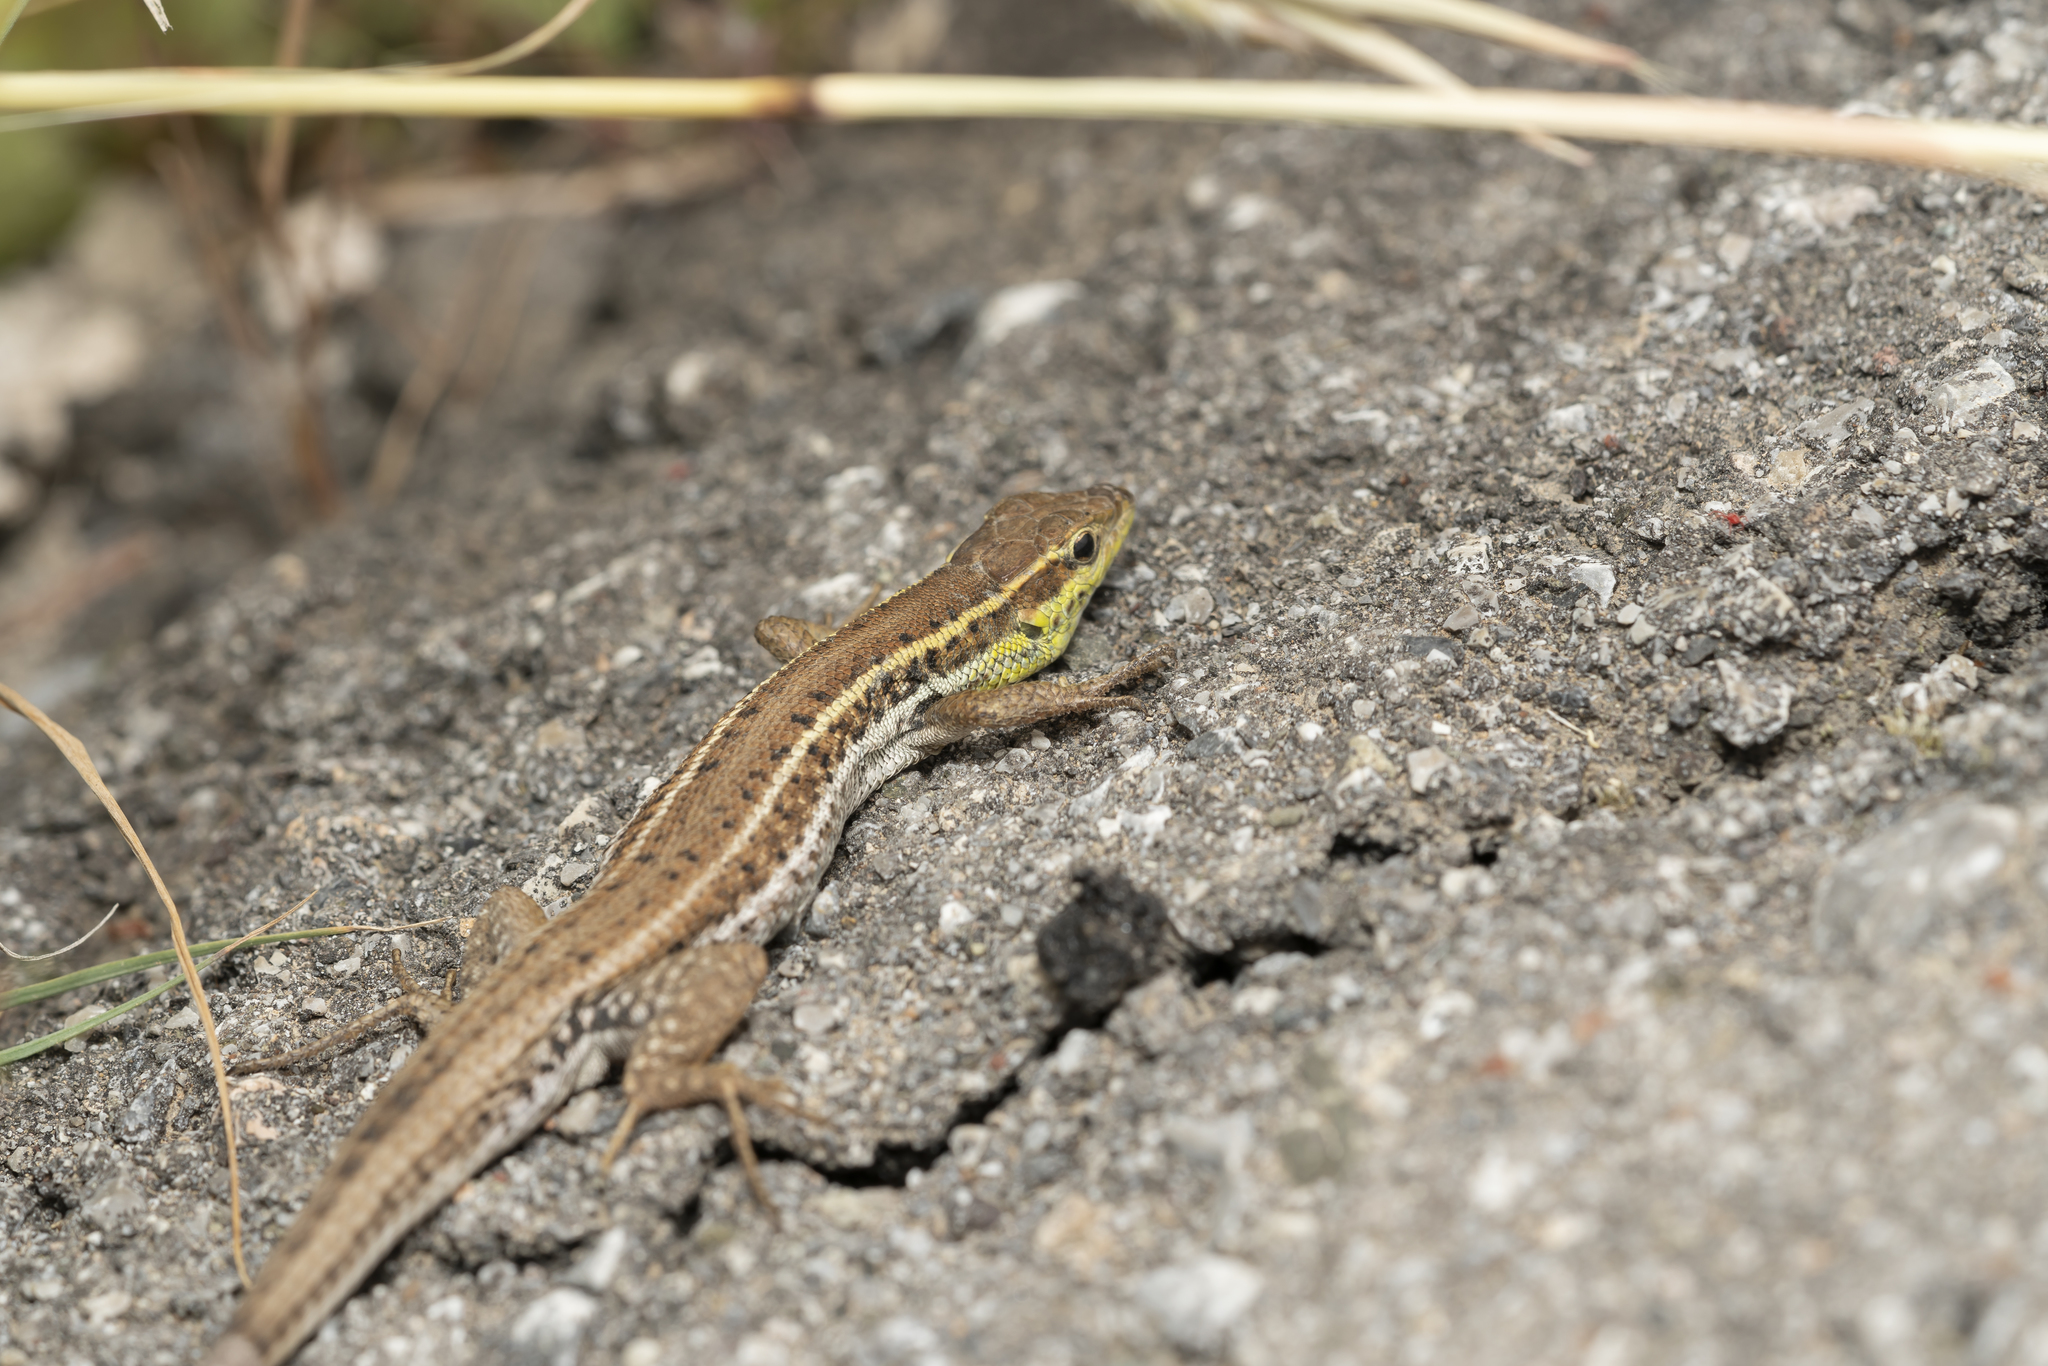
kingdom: Animalia
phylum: Chordata
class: Squamata
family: Lacertidae
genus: Ophisops
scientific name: Ophisops elegans
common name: Snake-eyed lizard
